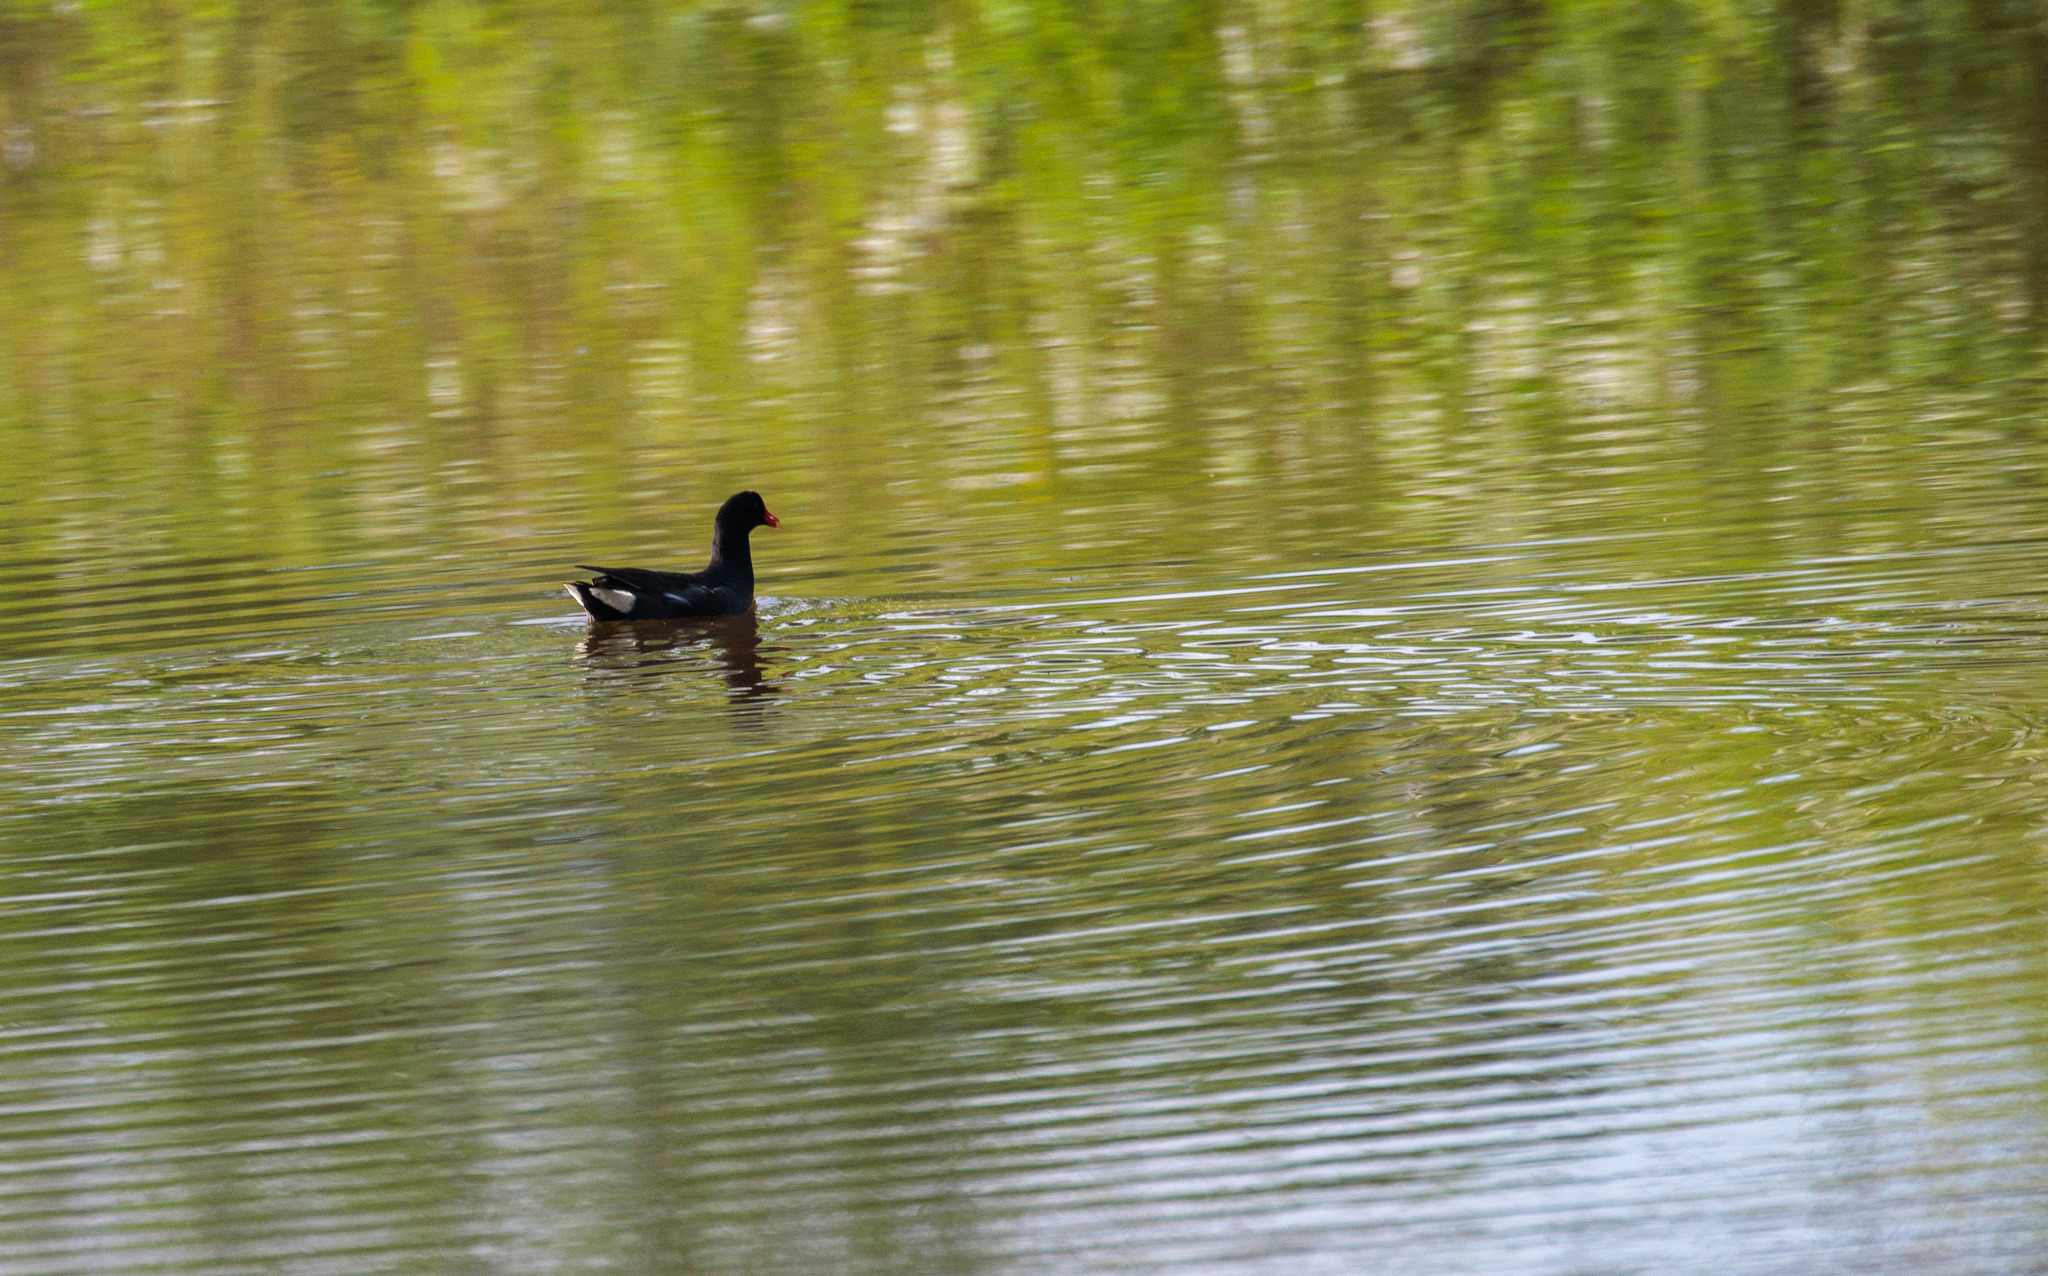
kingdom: Animalia
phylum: Chordata
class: Aves
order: Gruiformes
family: Rallidae
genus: Gallinula
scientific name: Gallinula chloropus
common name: Common moorhen
